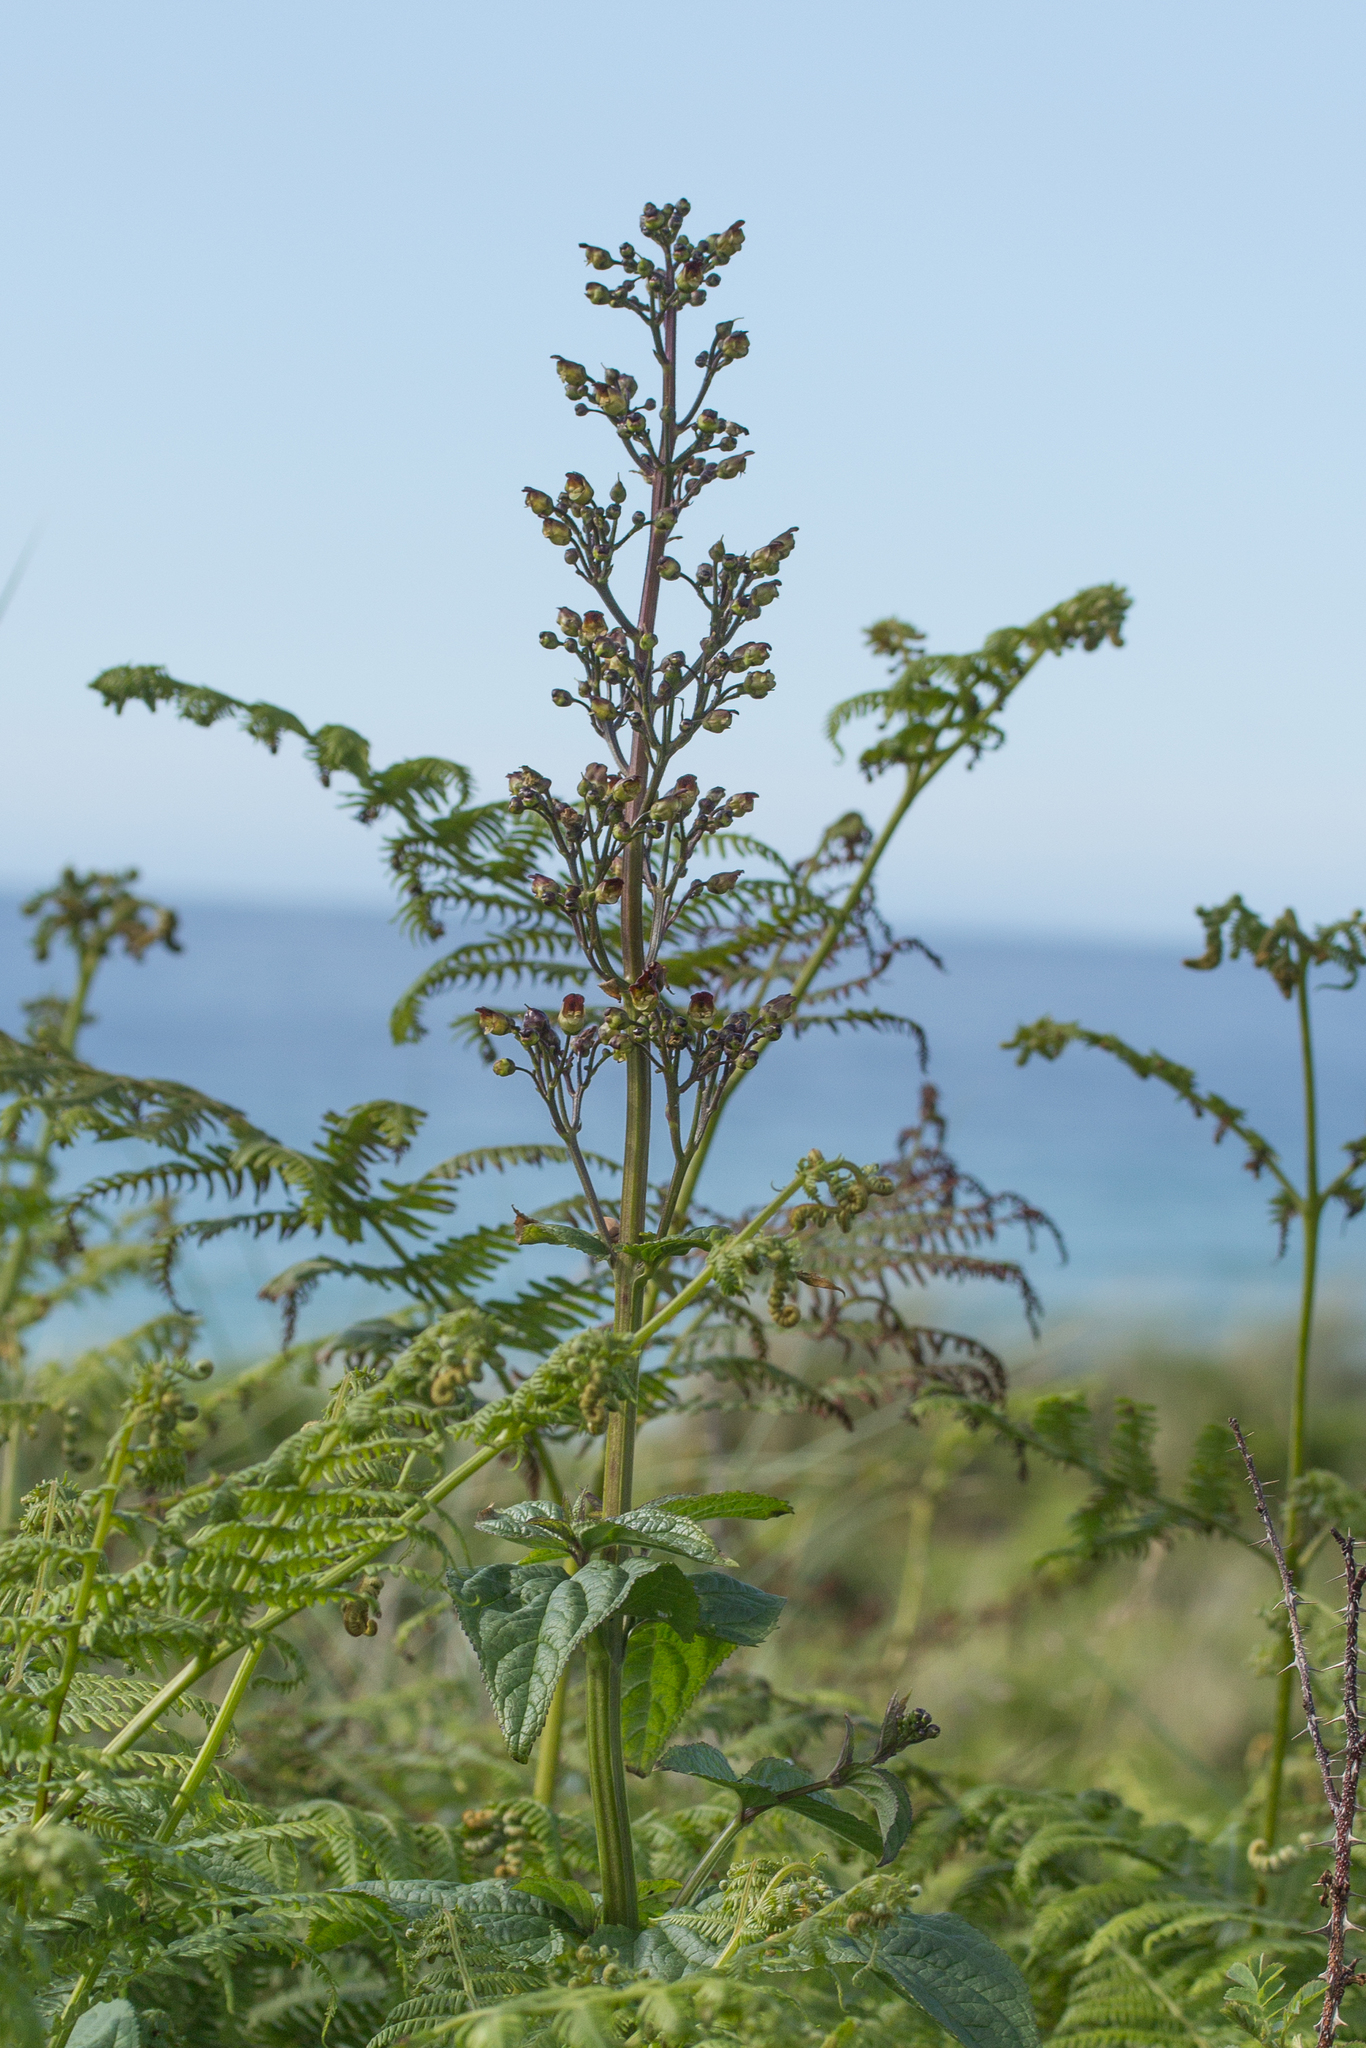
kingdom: Plantae
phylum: Tracheophyta
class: Magnoliopsida
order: Lamiales
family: Scrophulariaceae
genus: Scrophularia
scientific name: Scrophularia nodosa
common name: Common figwort
